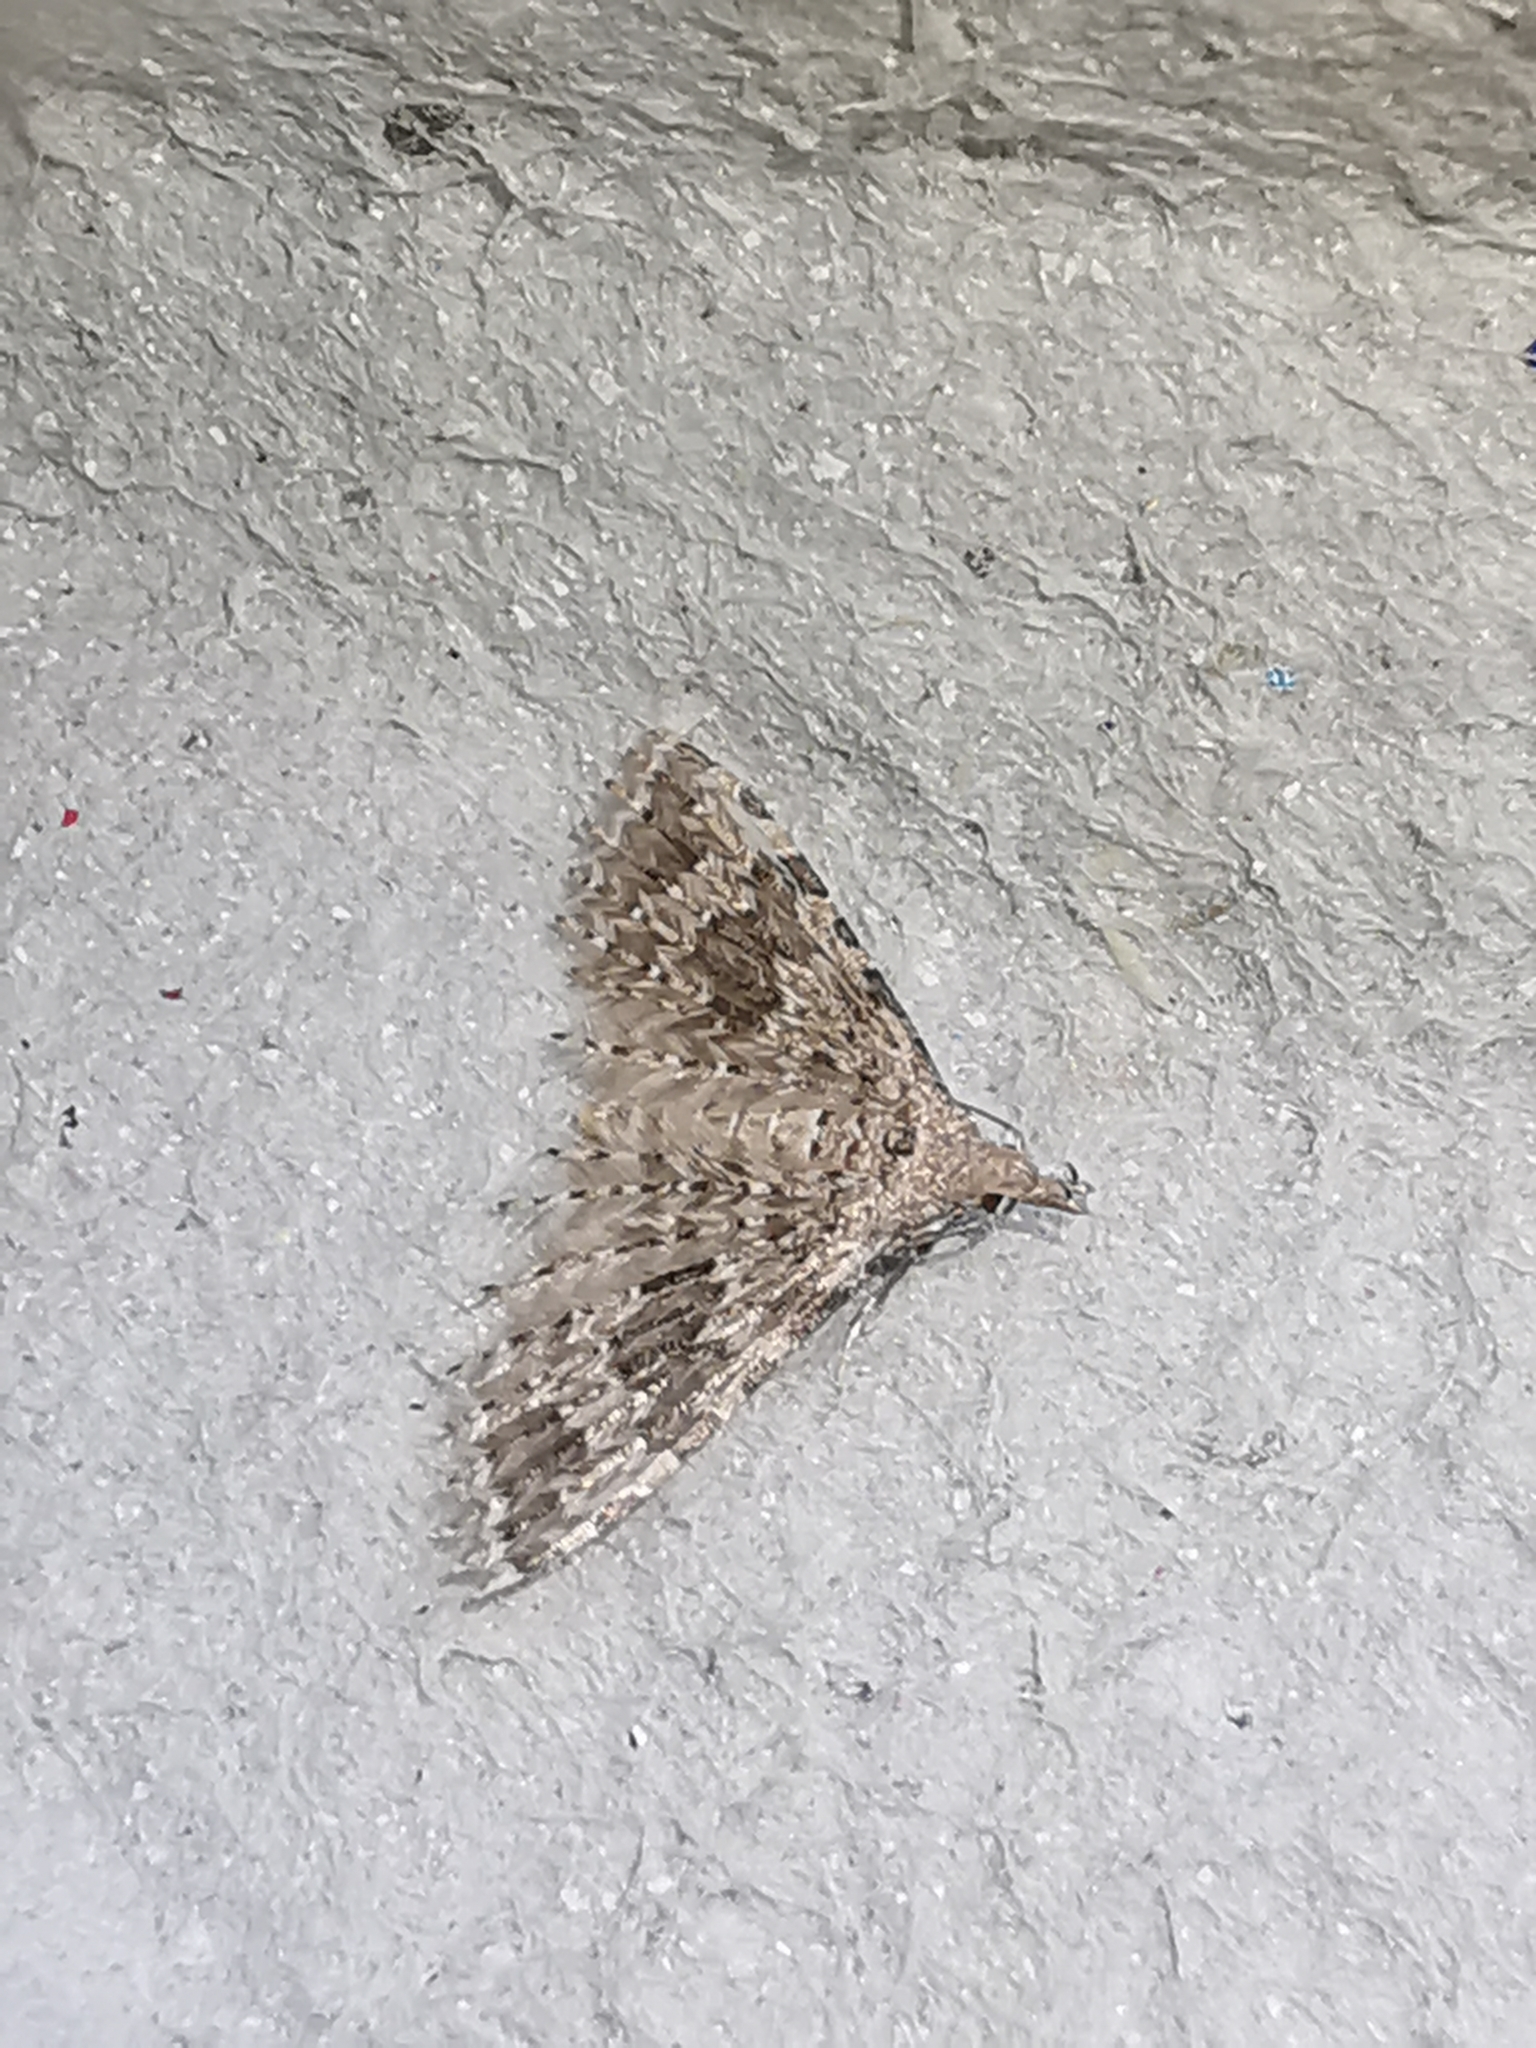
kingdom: Animalia
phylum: Arthropoda
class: Insecta
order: Lepidoptera
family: Alucitidae
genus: Alucita
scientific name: Alucita hexadactyla
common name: Twenty-plume moth
